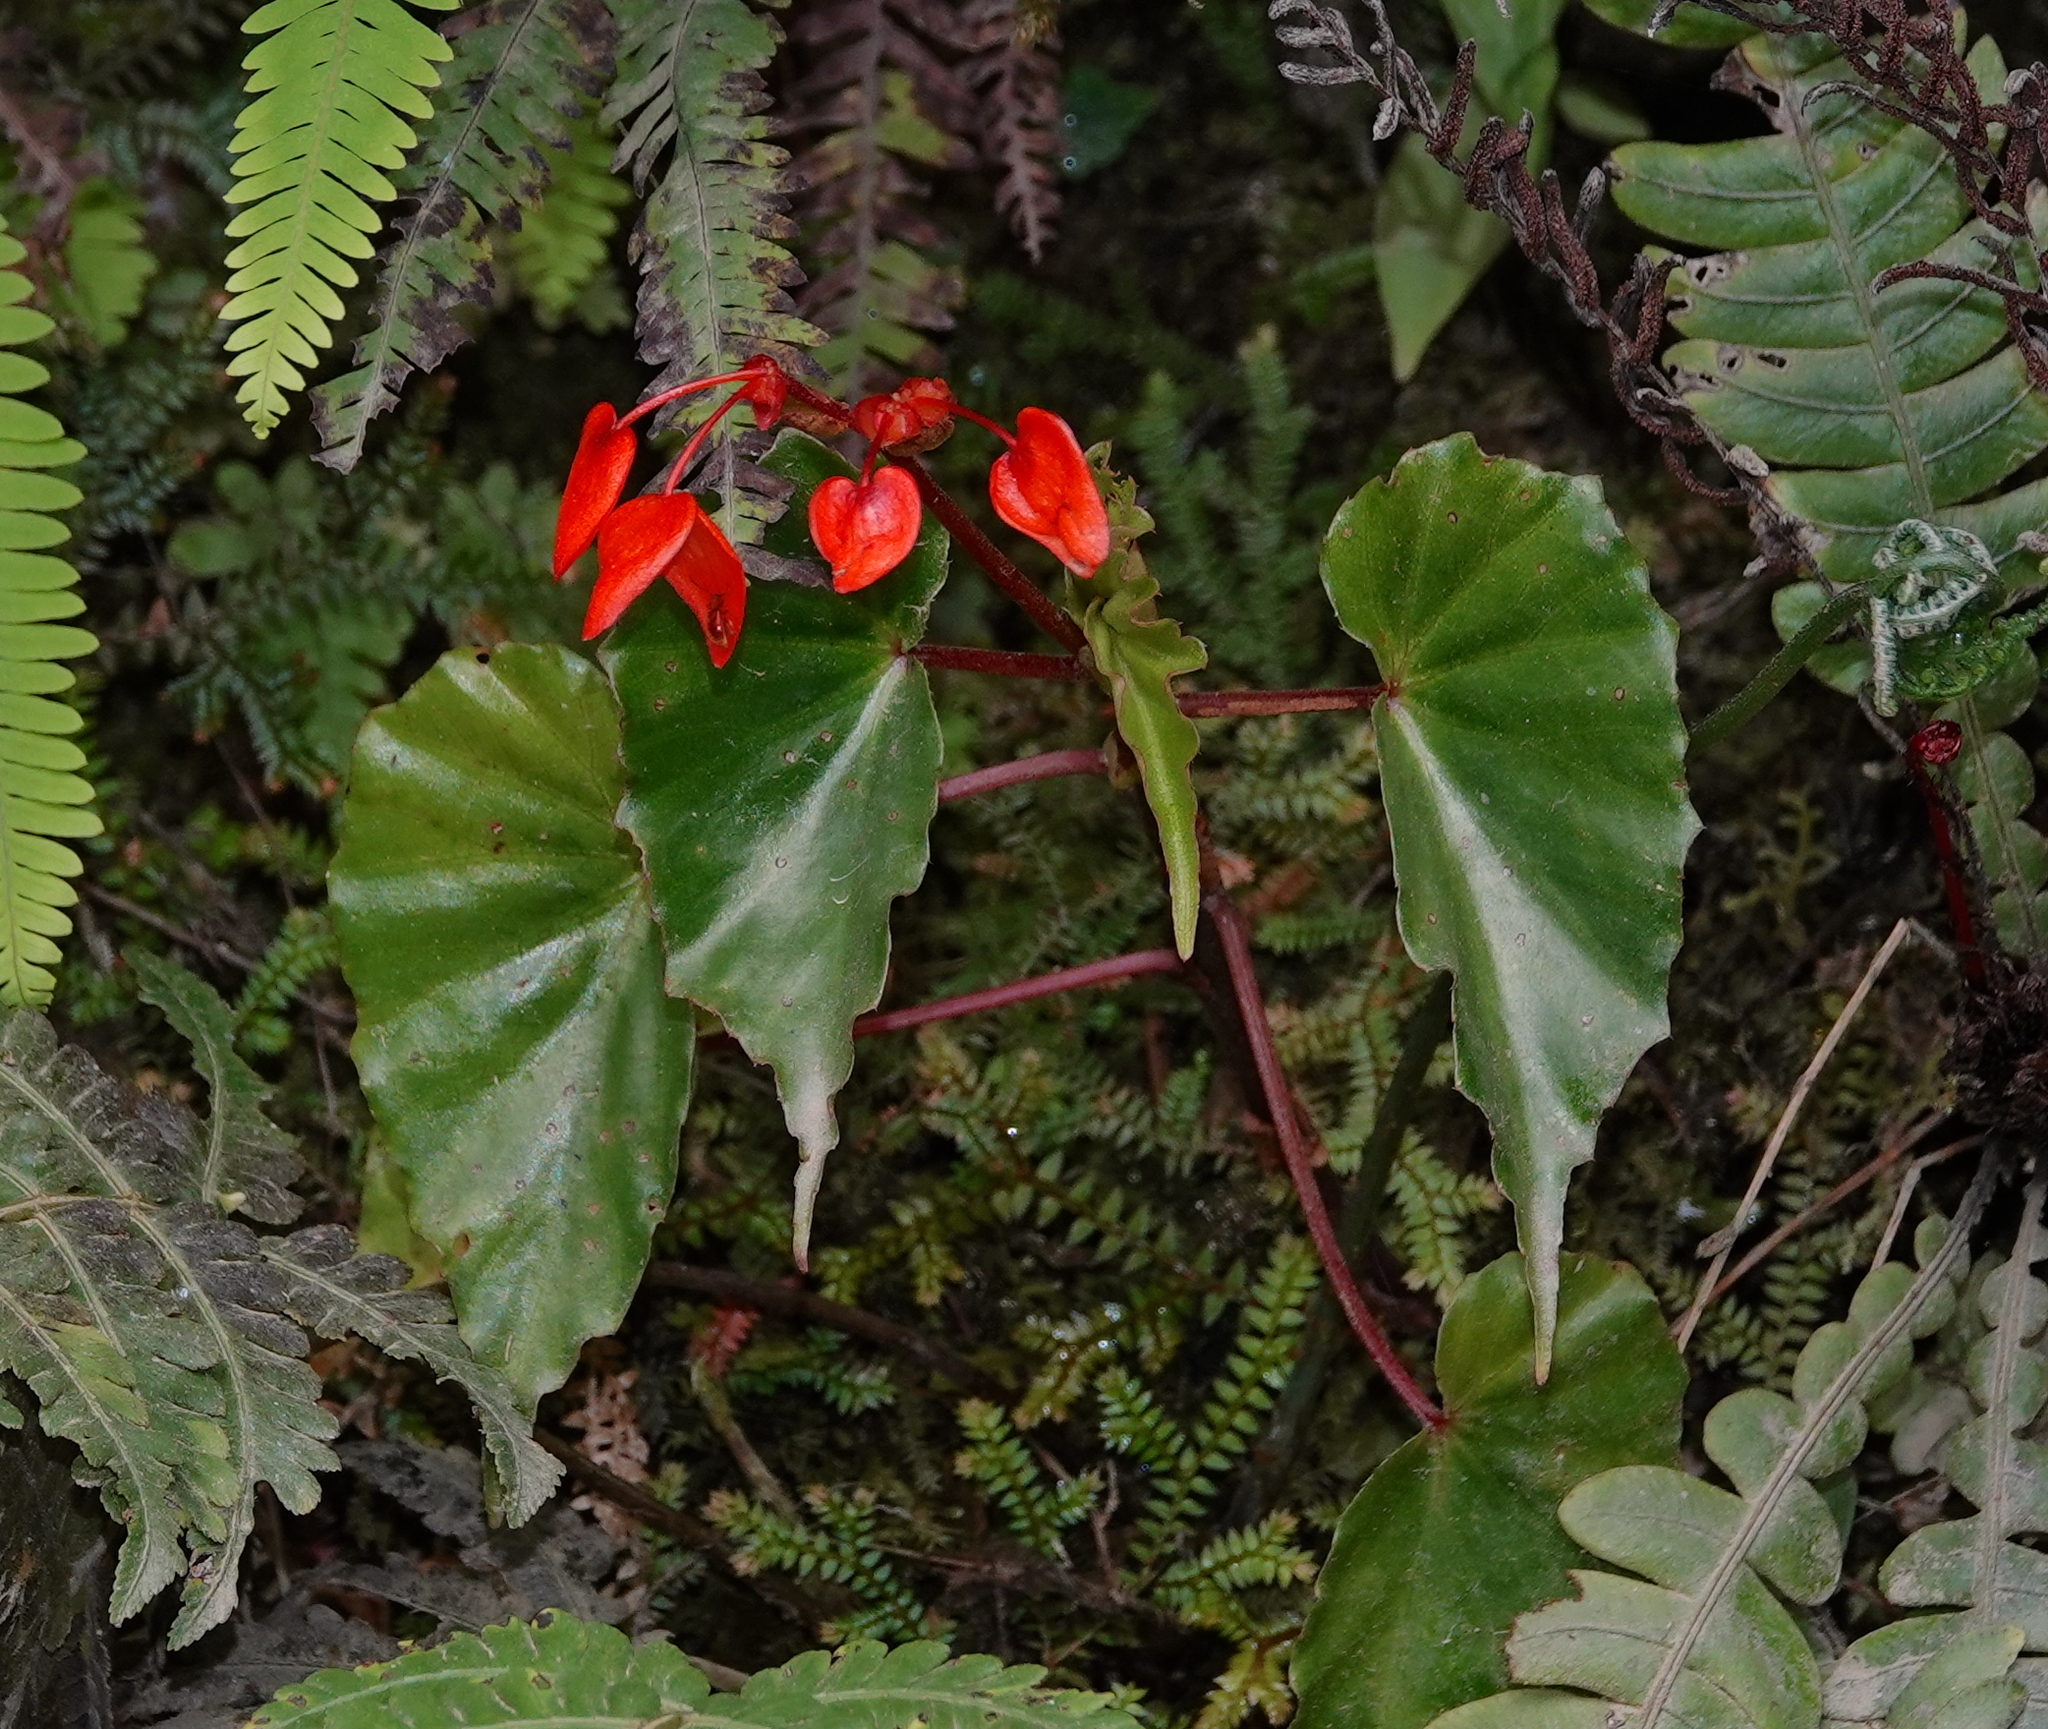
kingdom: Plantae
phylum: Tracheophyta
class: Magnoliopsida
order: Cucurbitales
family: Begoniaceae
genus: Begonia
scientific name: Begonia stenotepala
